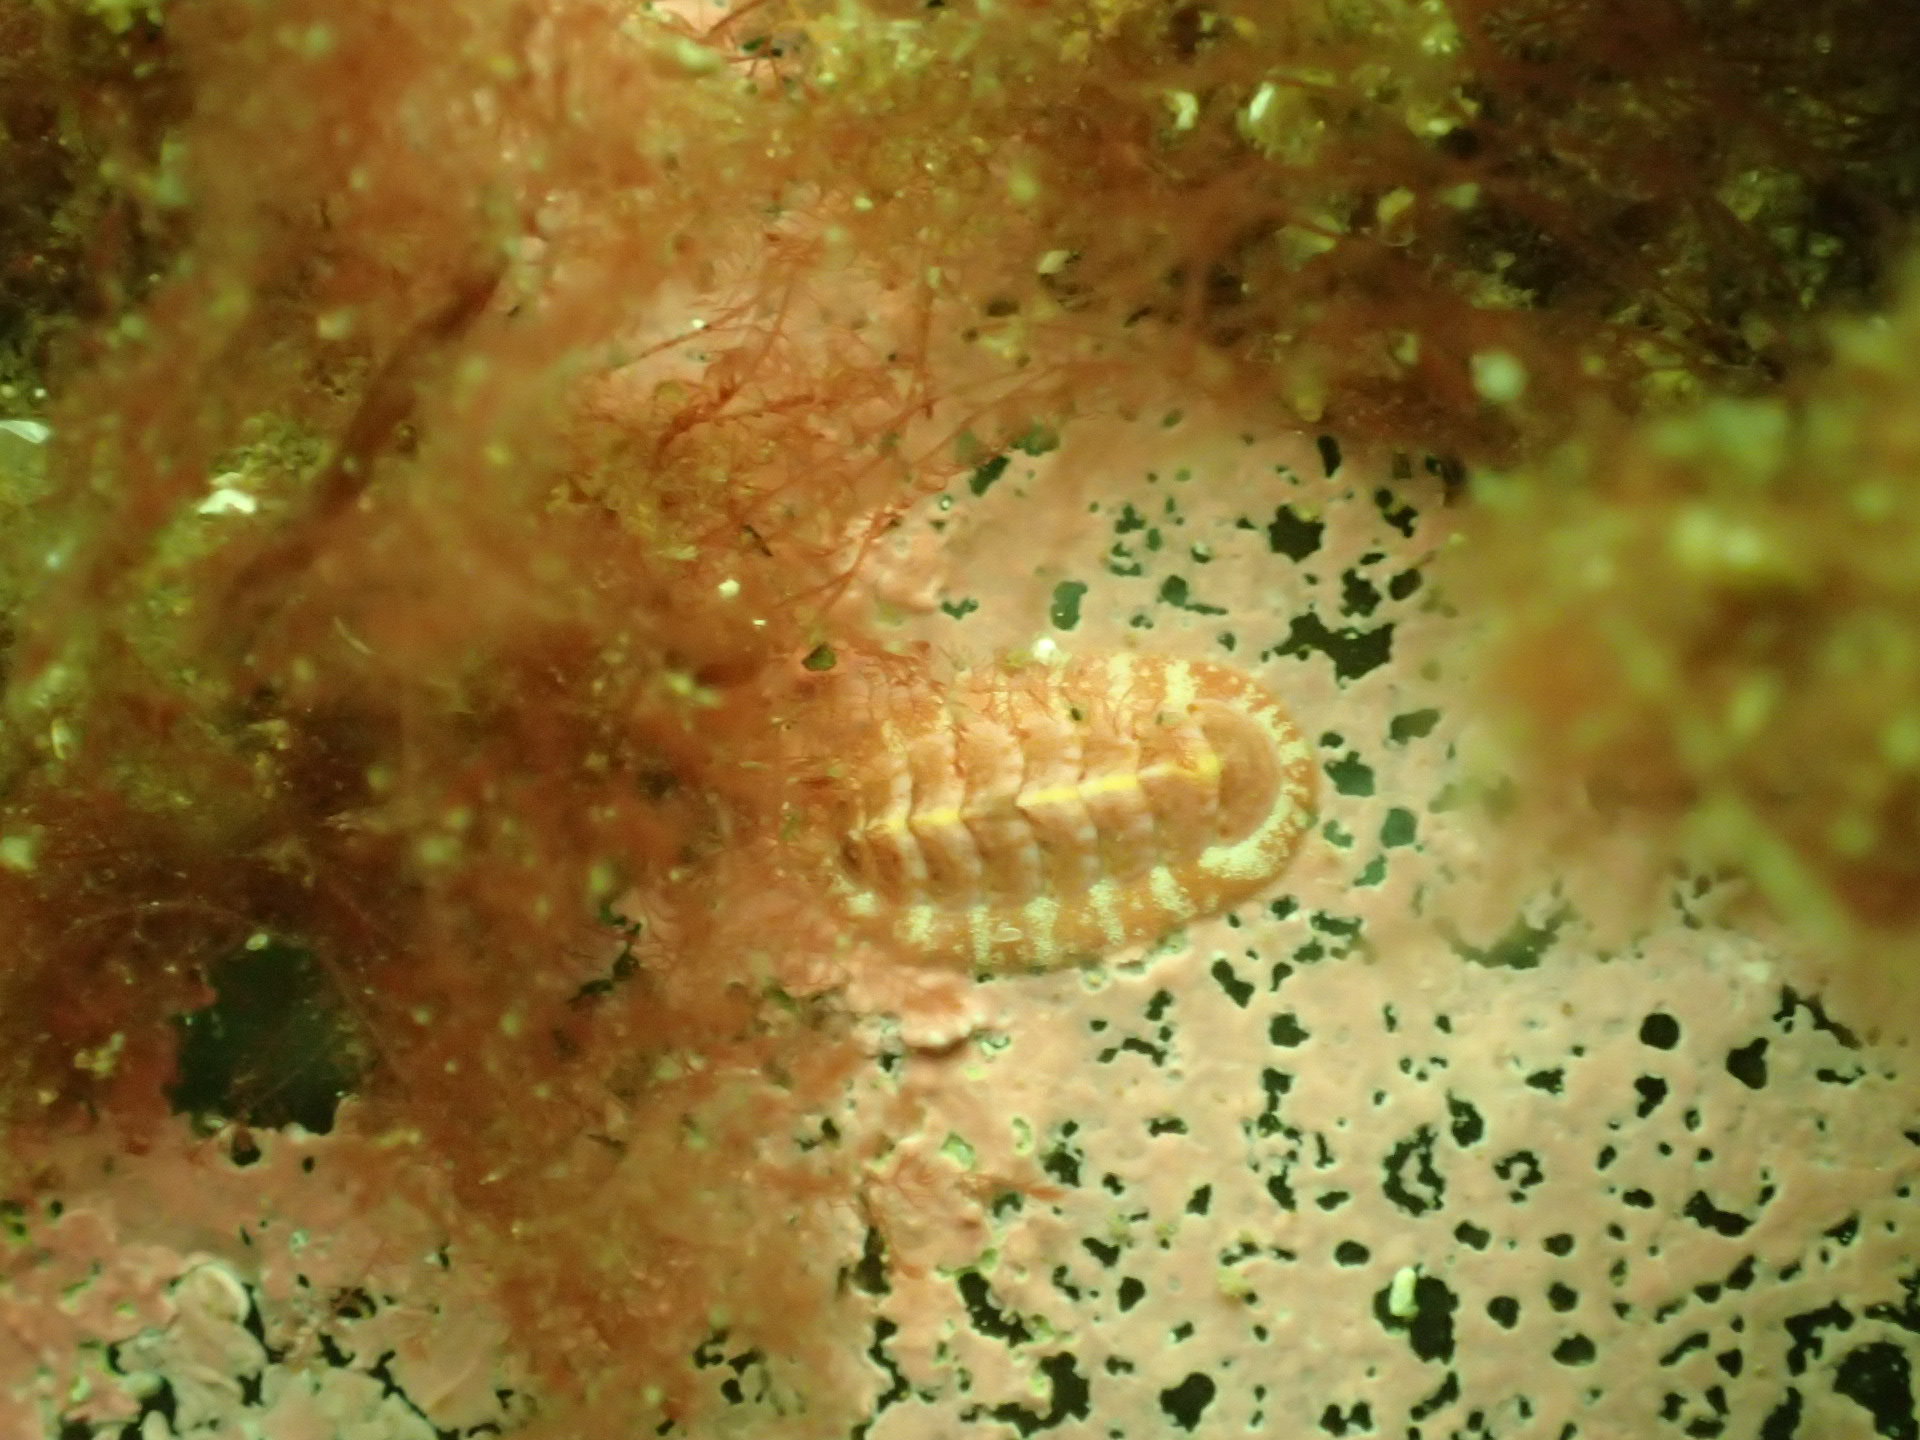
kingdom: Animalia
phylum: Mollusca
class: Polyplacophora
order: Chitonida
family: Tonicellidae
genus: Tonicella
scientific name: Tonicella marmorea
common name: Lined red chiton
